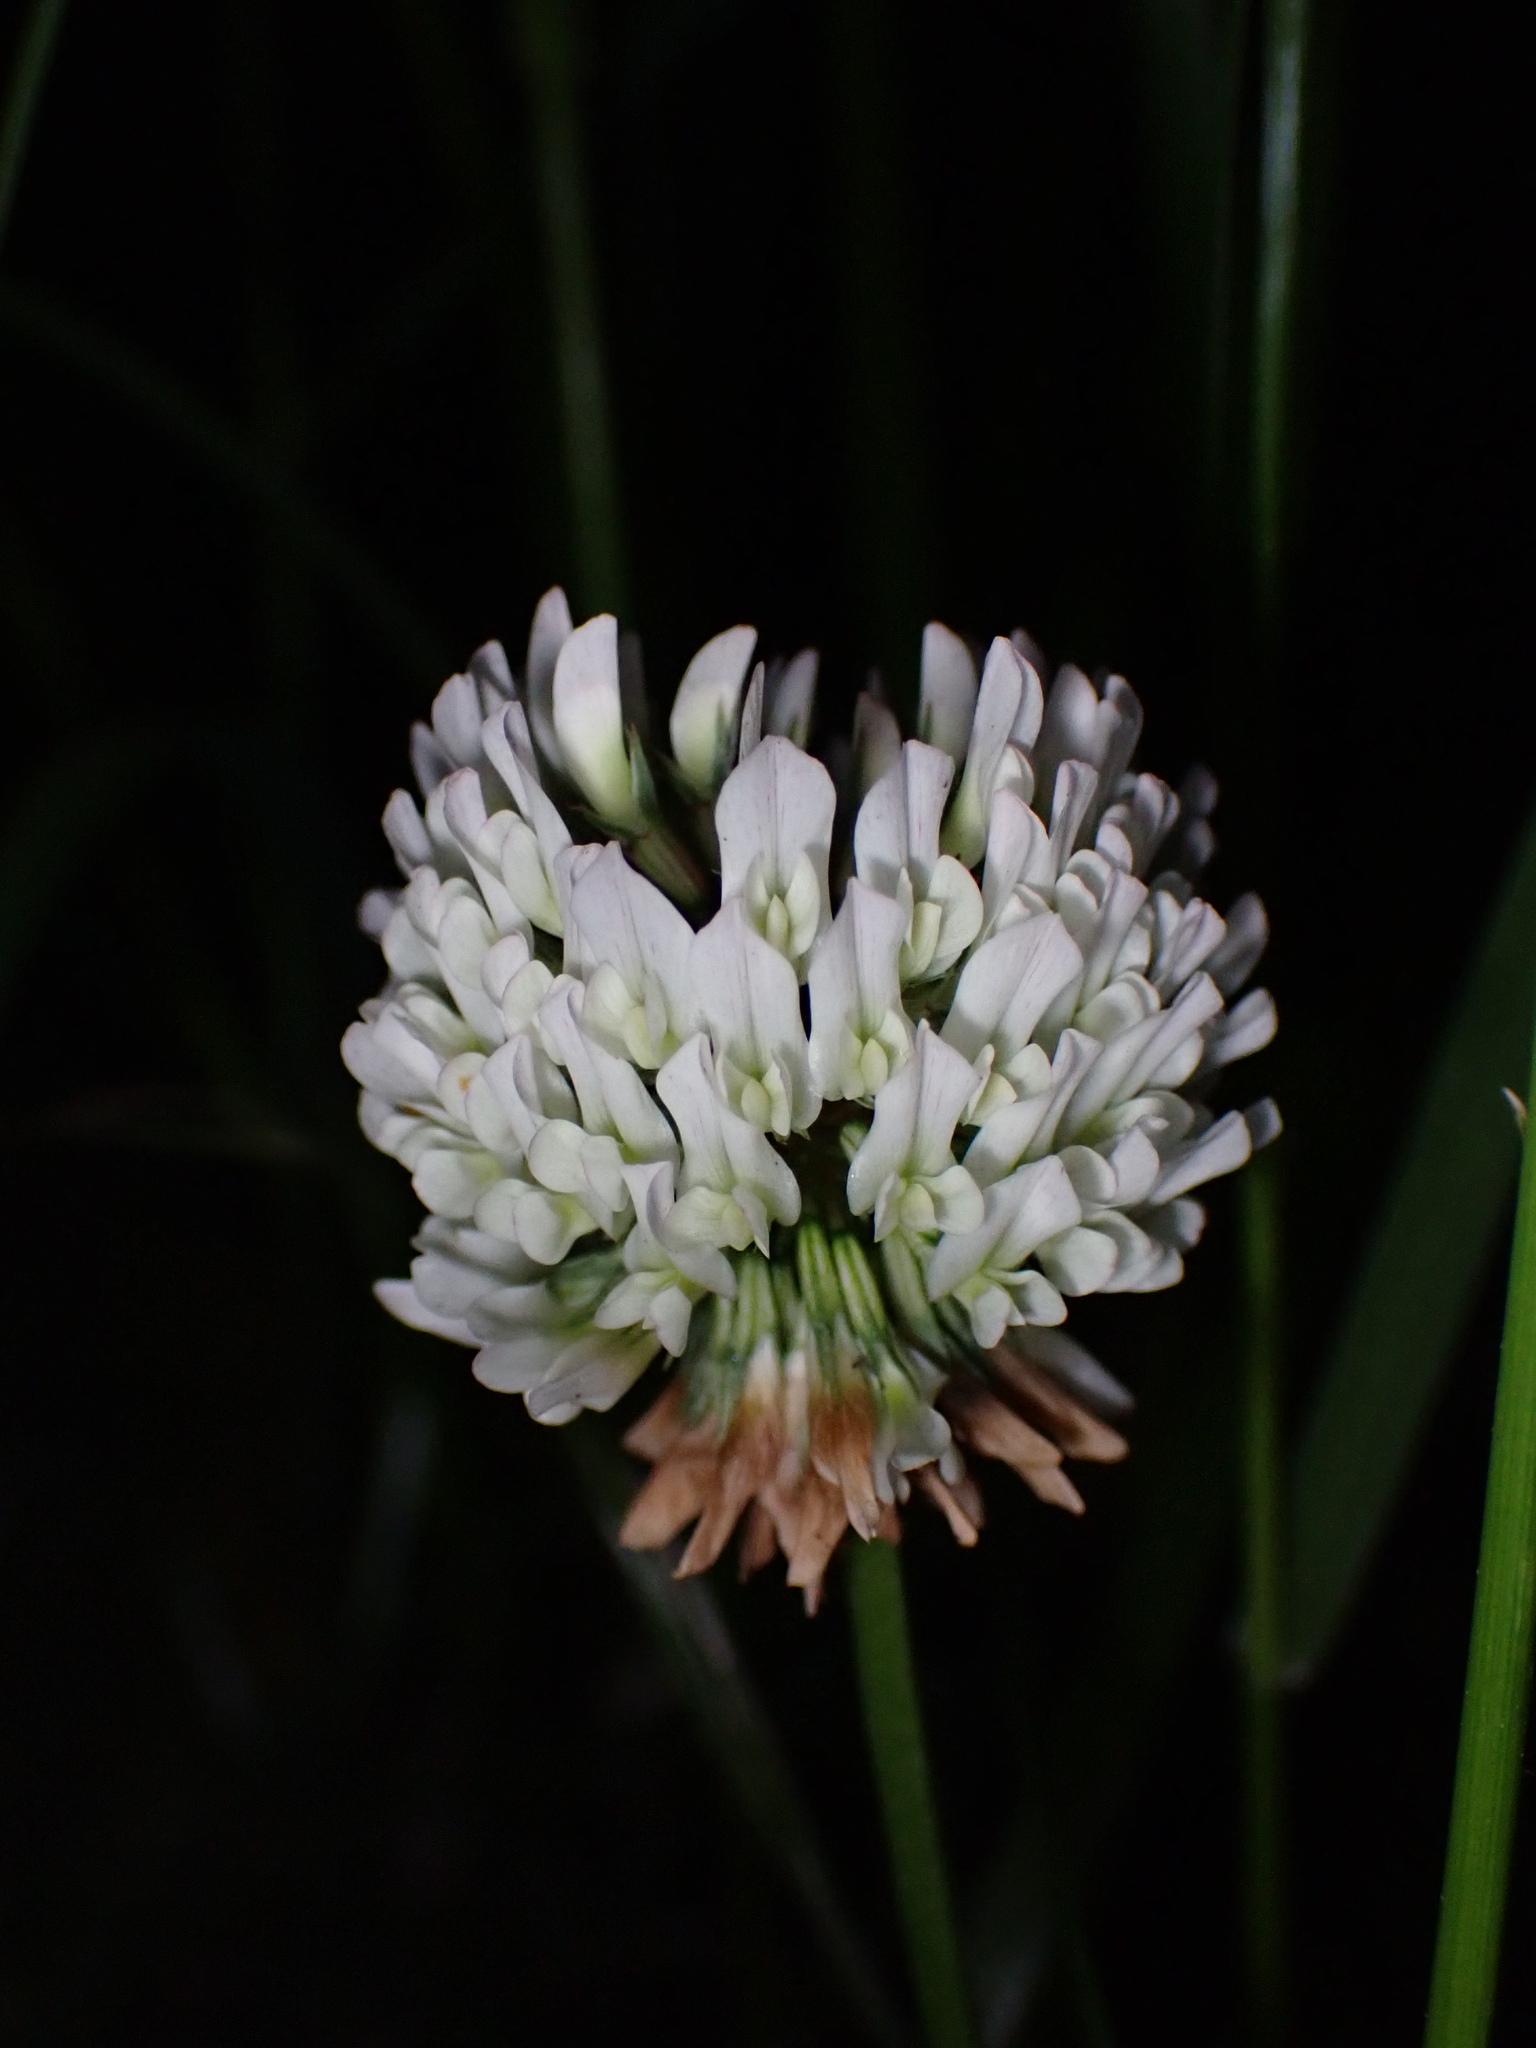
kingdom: Plantae
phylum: Tracheophyta
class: Magnoliopsida
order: Fabales
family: Fabaceae
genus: Trifolium
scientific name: Trifolium repens
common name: White clover
